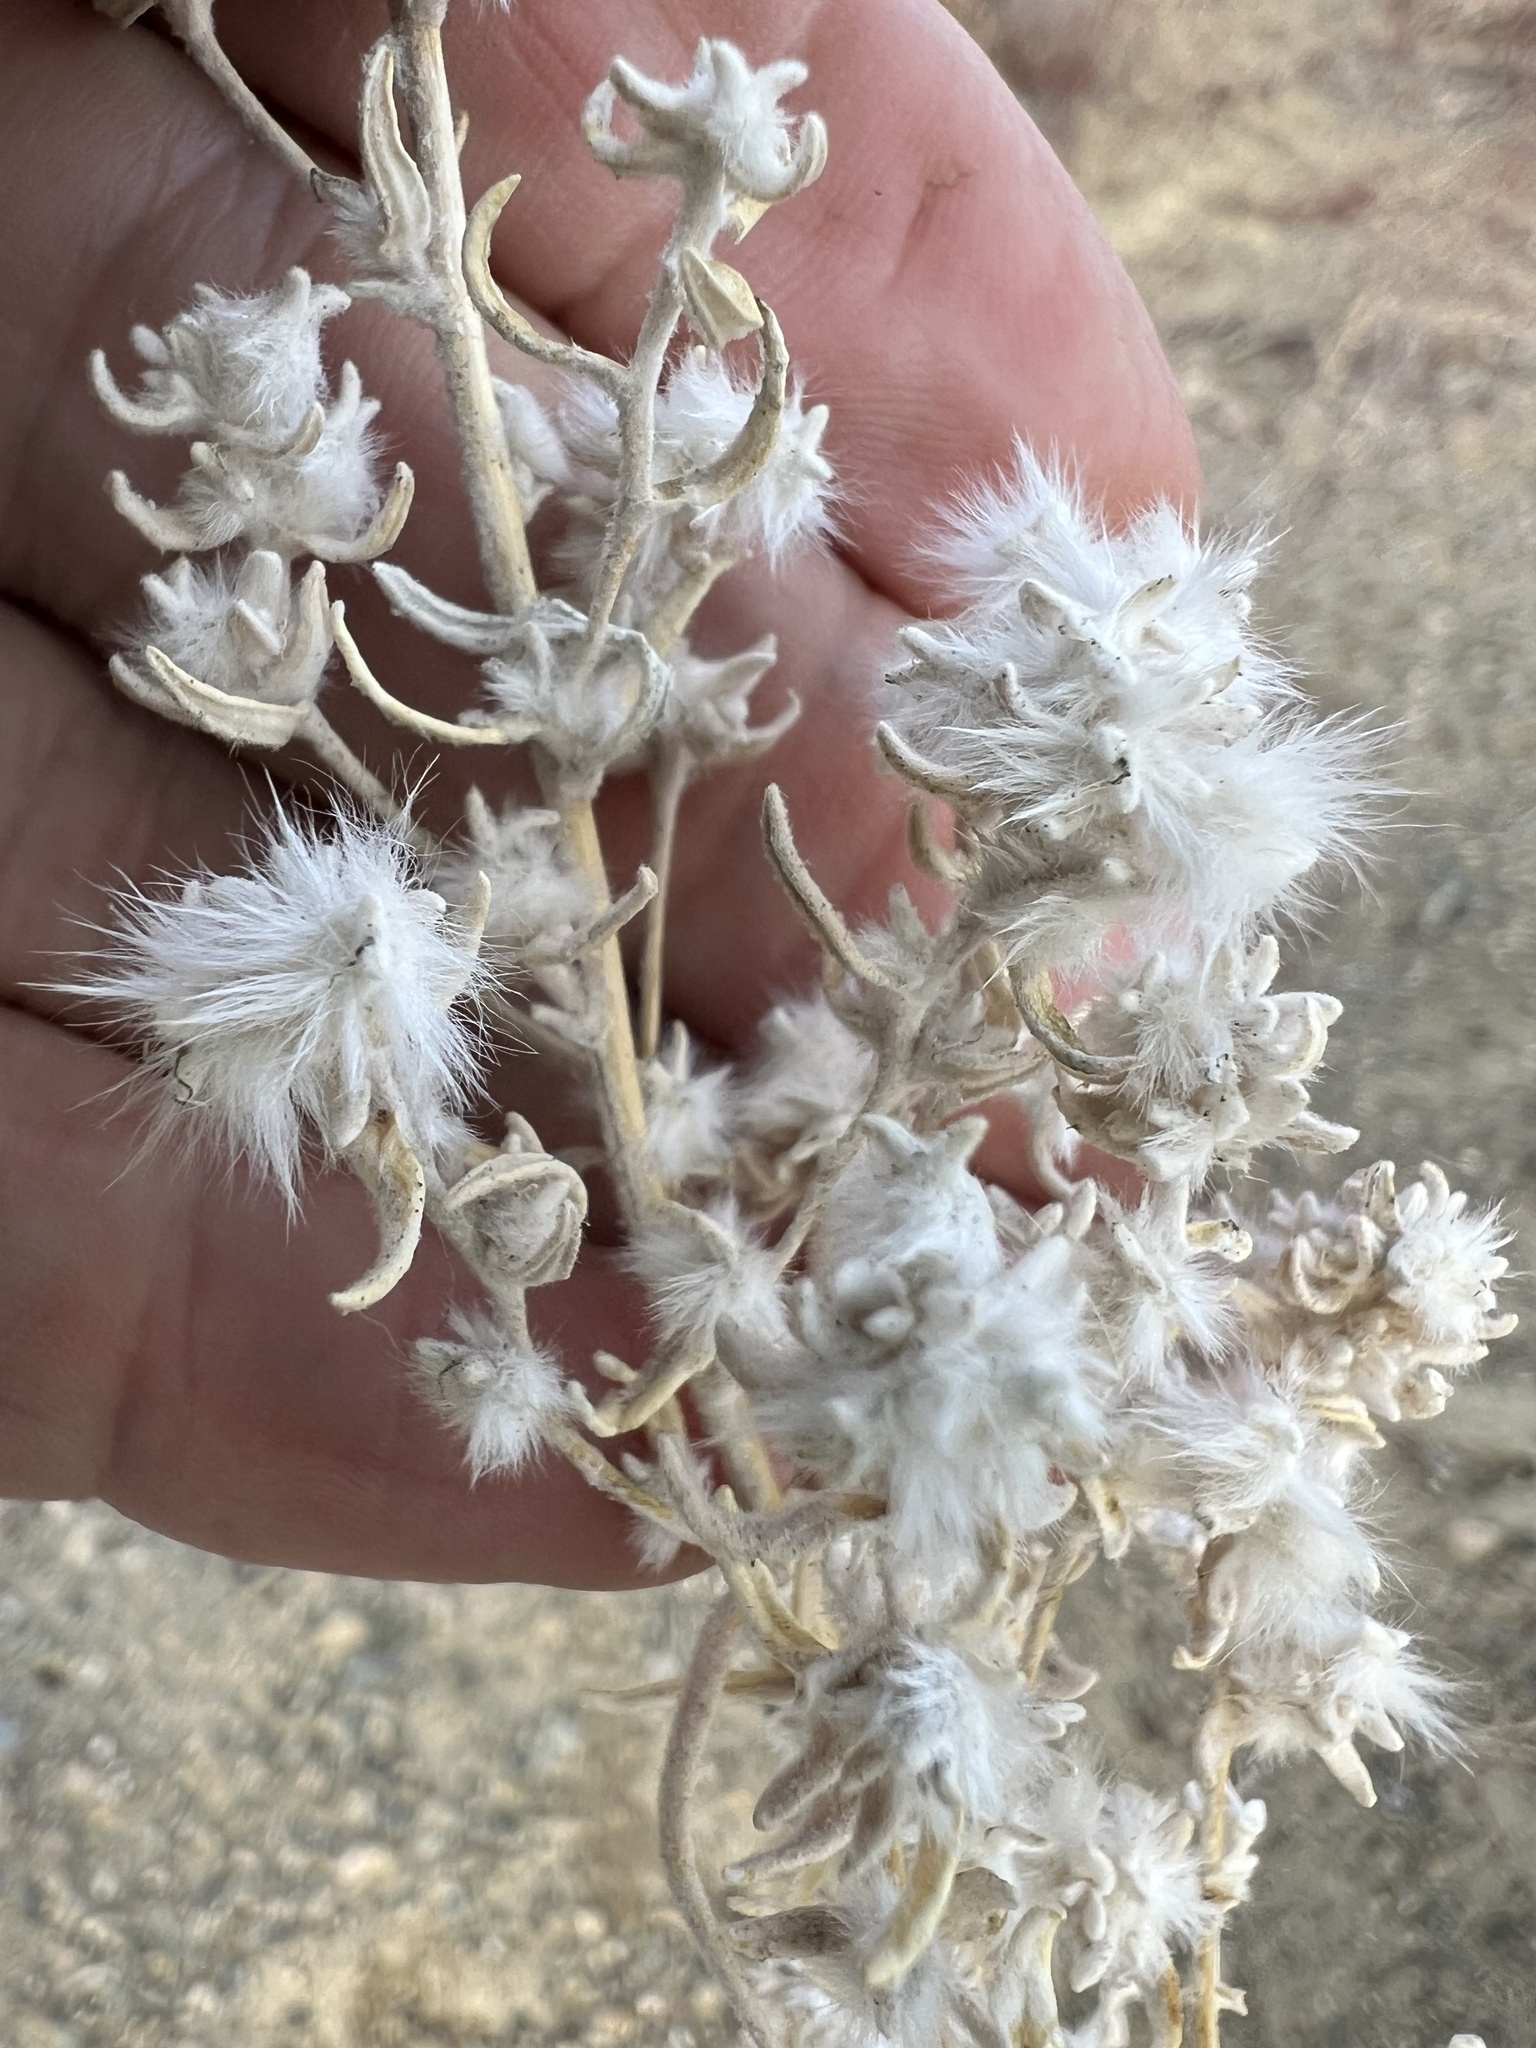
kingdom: Plantae
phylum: Tracheophyta
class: Magnoliopsida
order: Caryophyllales
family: Amaranthaceae
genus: Krascheninnikovia
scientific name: Krascheninnikovia lanata
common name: Winterfat
